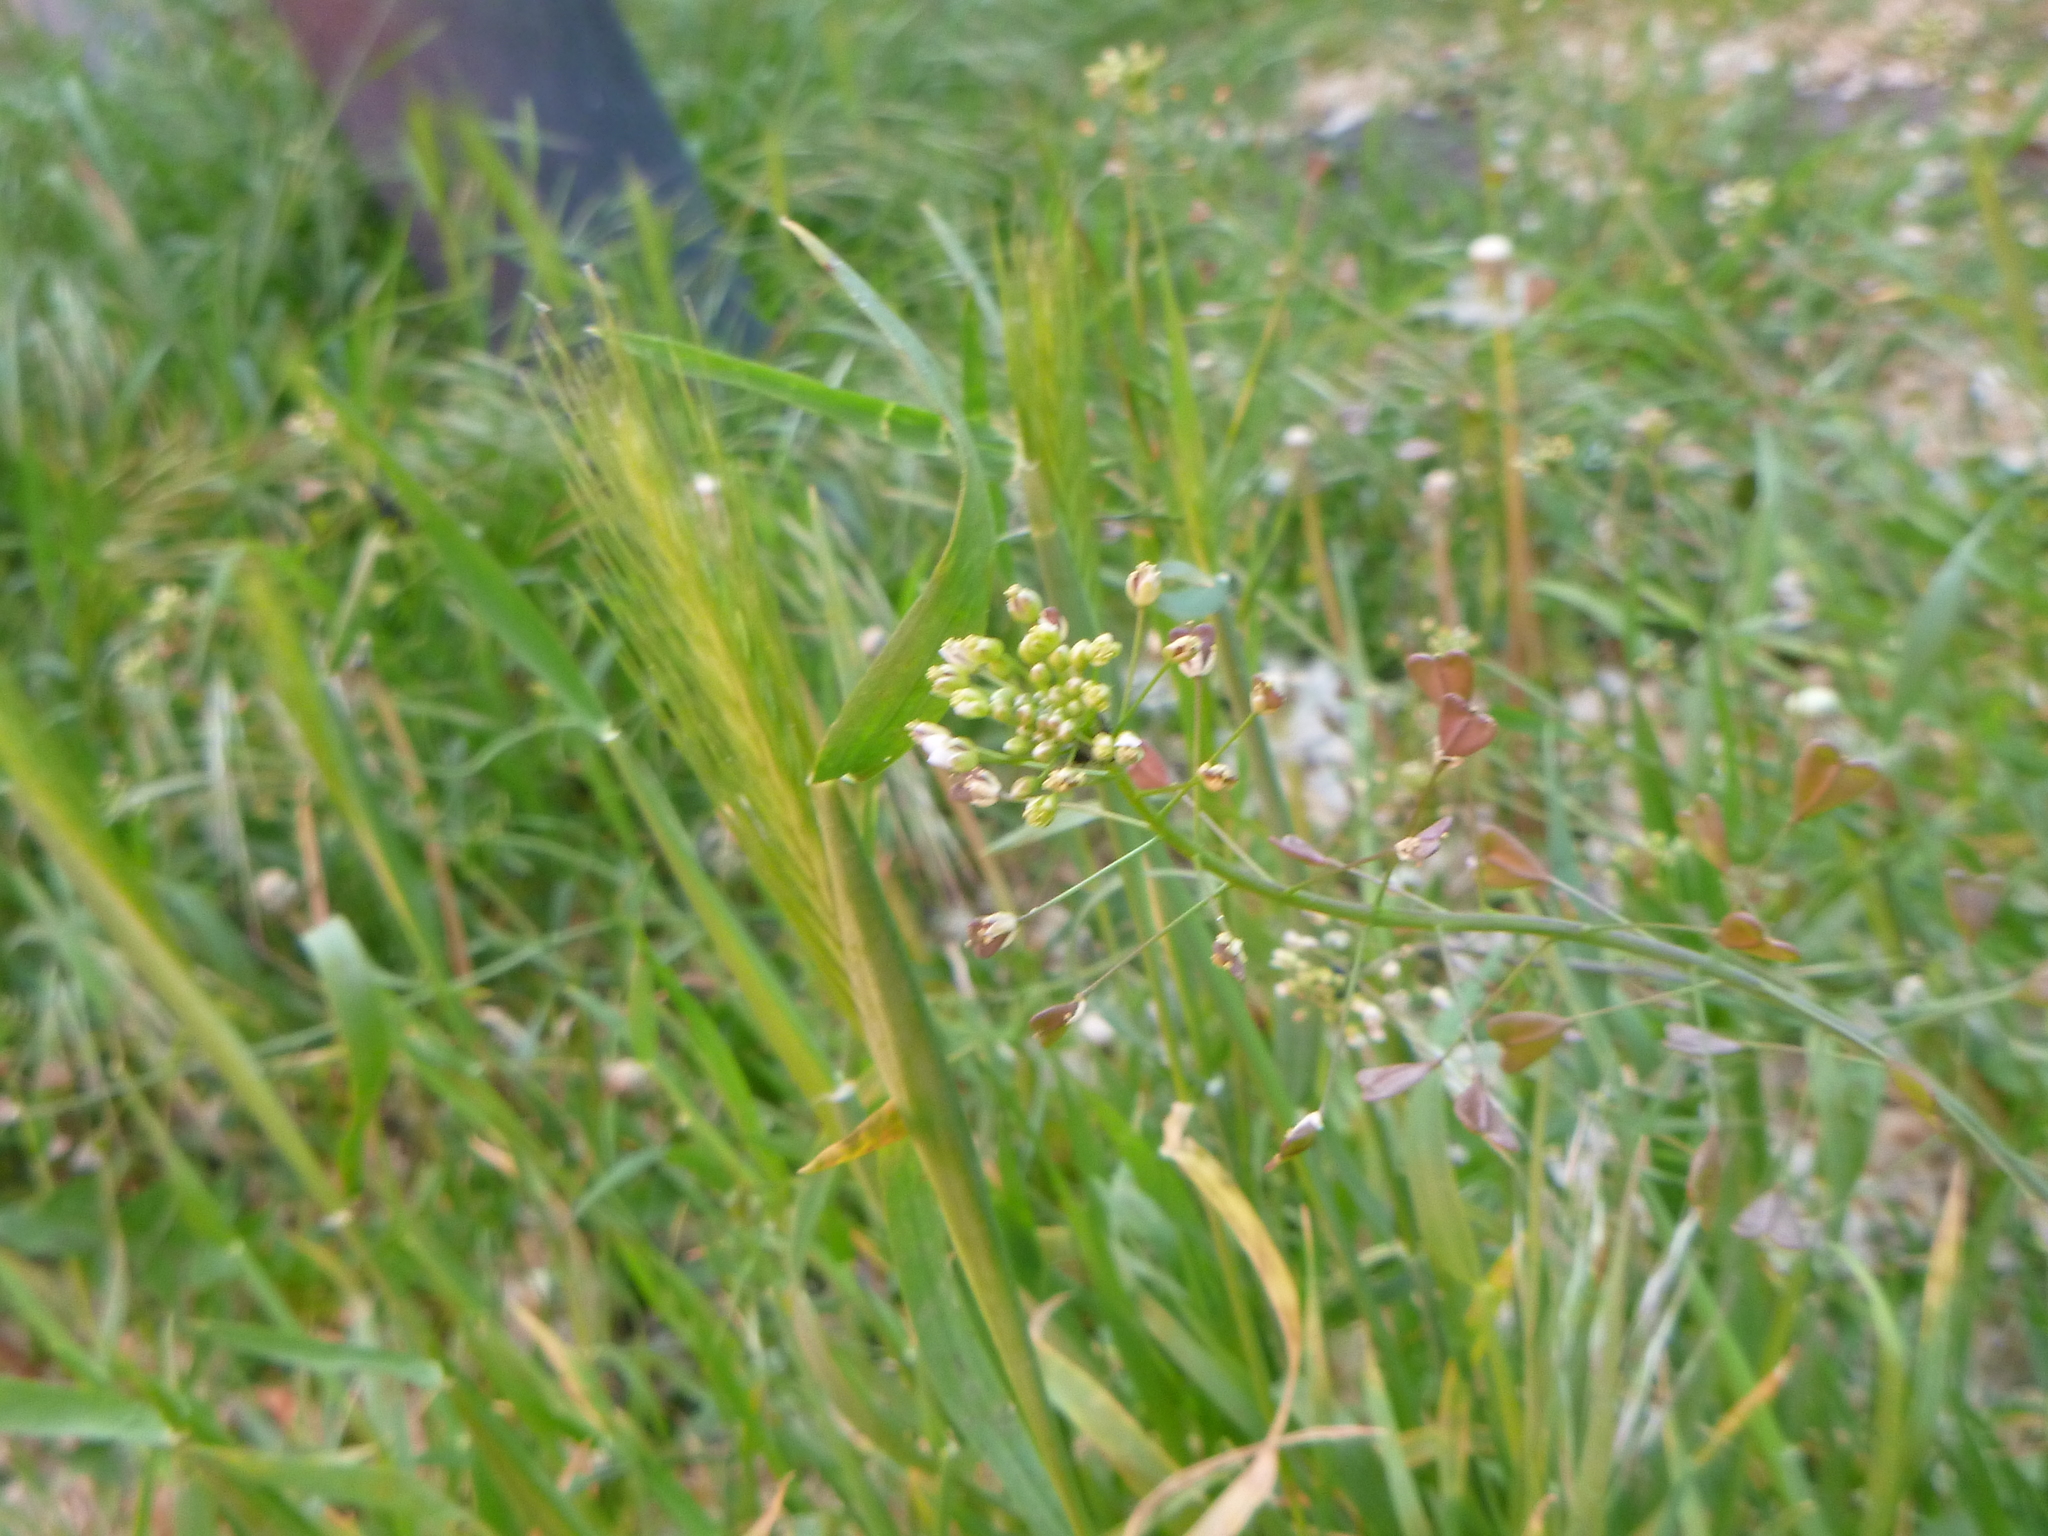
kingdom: Plantae
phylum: Tracheophyta
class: Magnoliopsida
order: Brassicales
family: Brassicaceae
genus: Capsella
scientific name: Capsella bursa-pastoris
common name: Shepherd's purse
